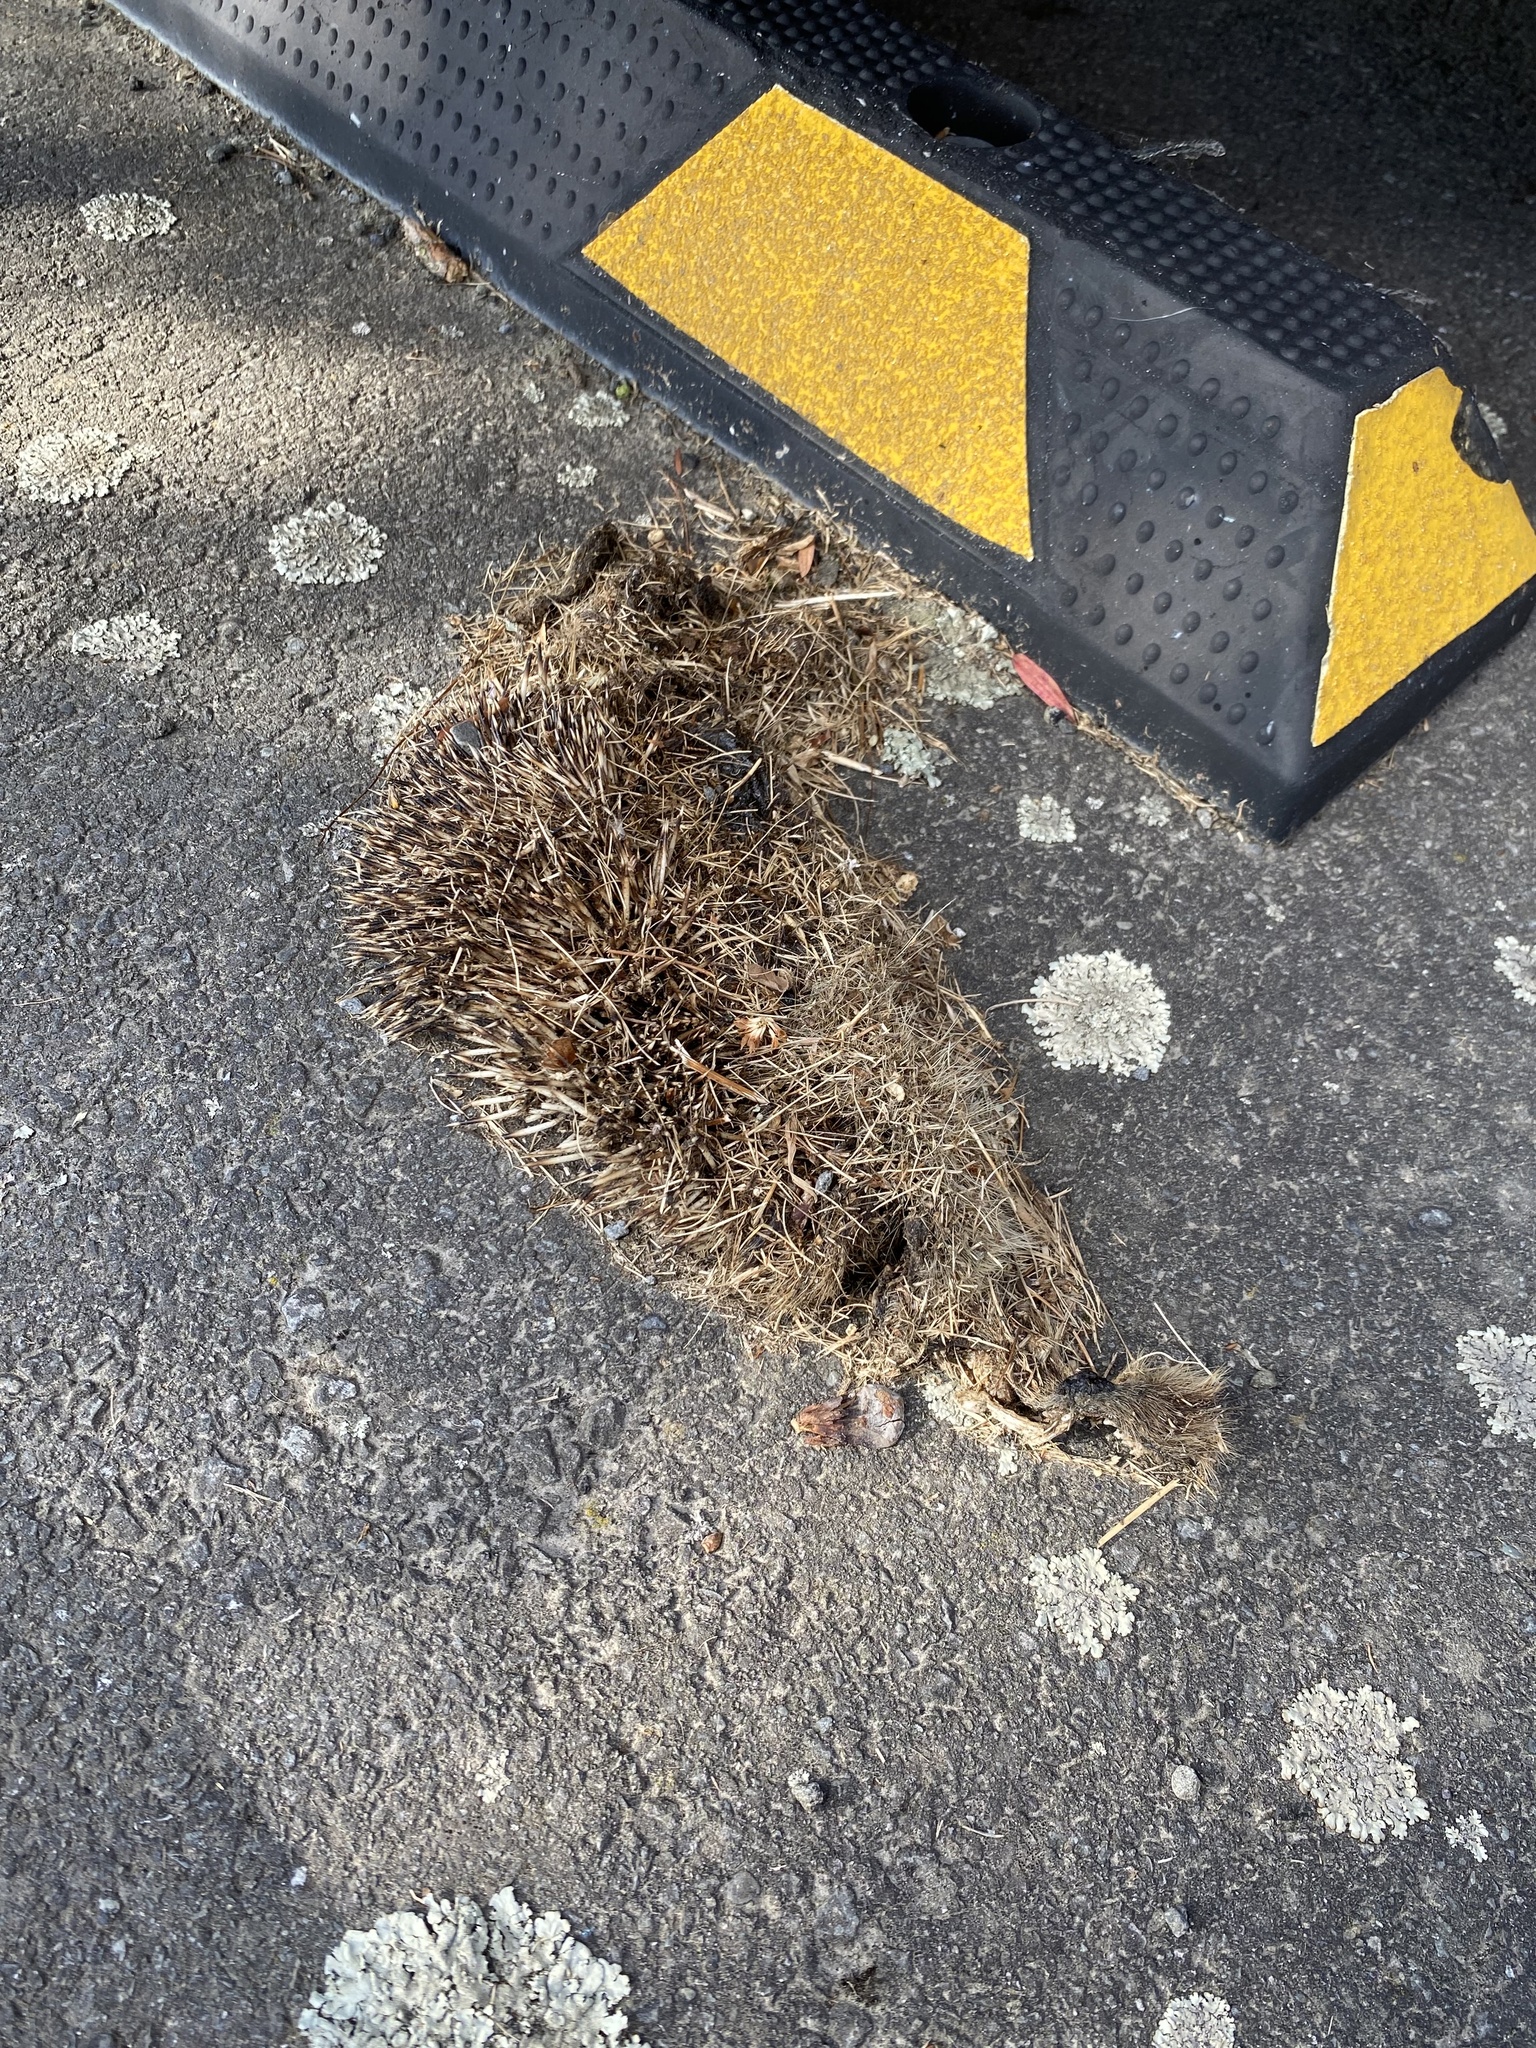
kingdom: Animalia
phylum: Chordata
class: Mammalia
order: Erinaceomorpha
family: Erinaceidae
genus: Erinaceus
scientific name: Erinaceus europaeus
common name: West european hedgehog
